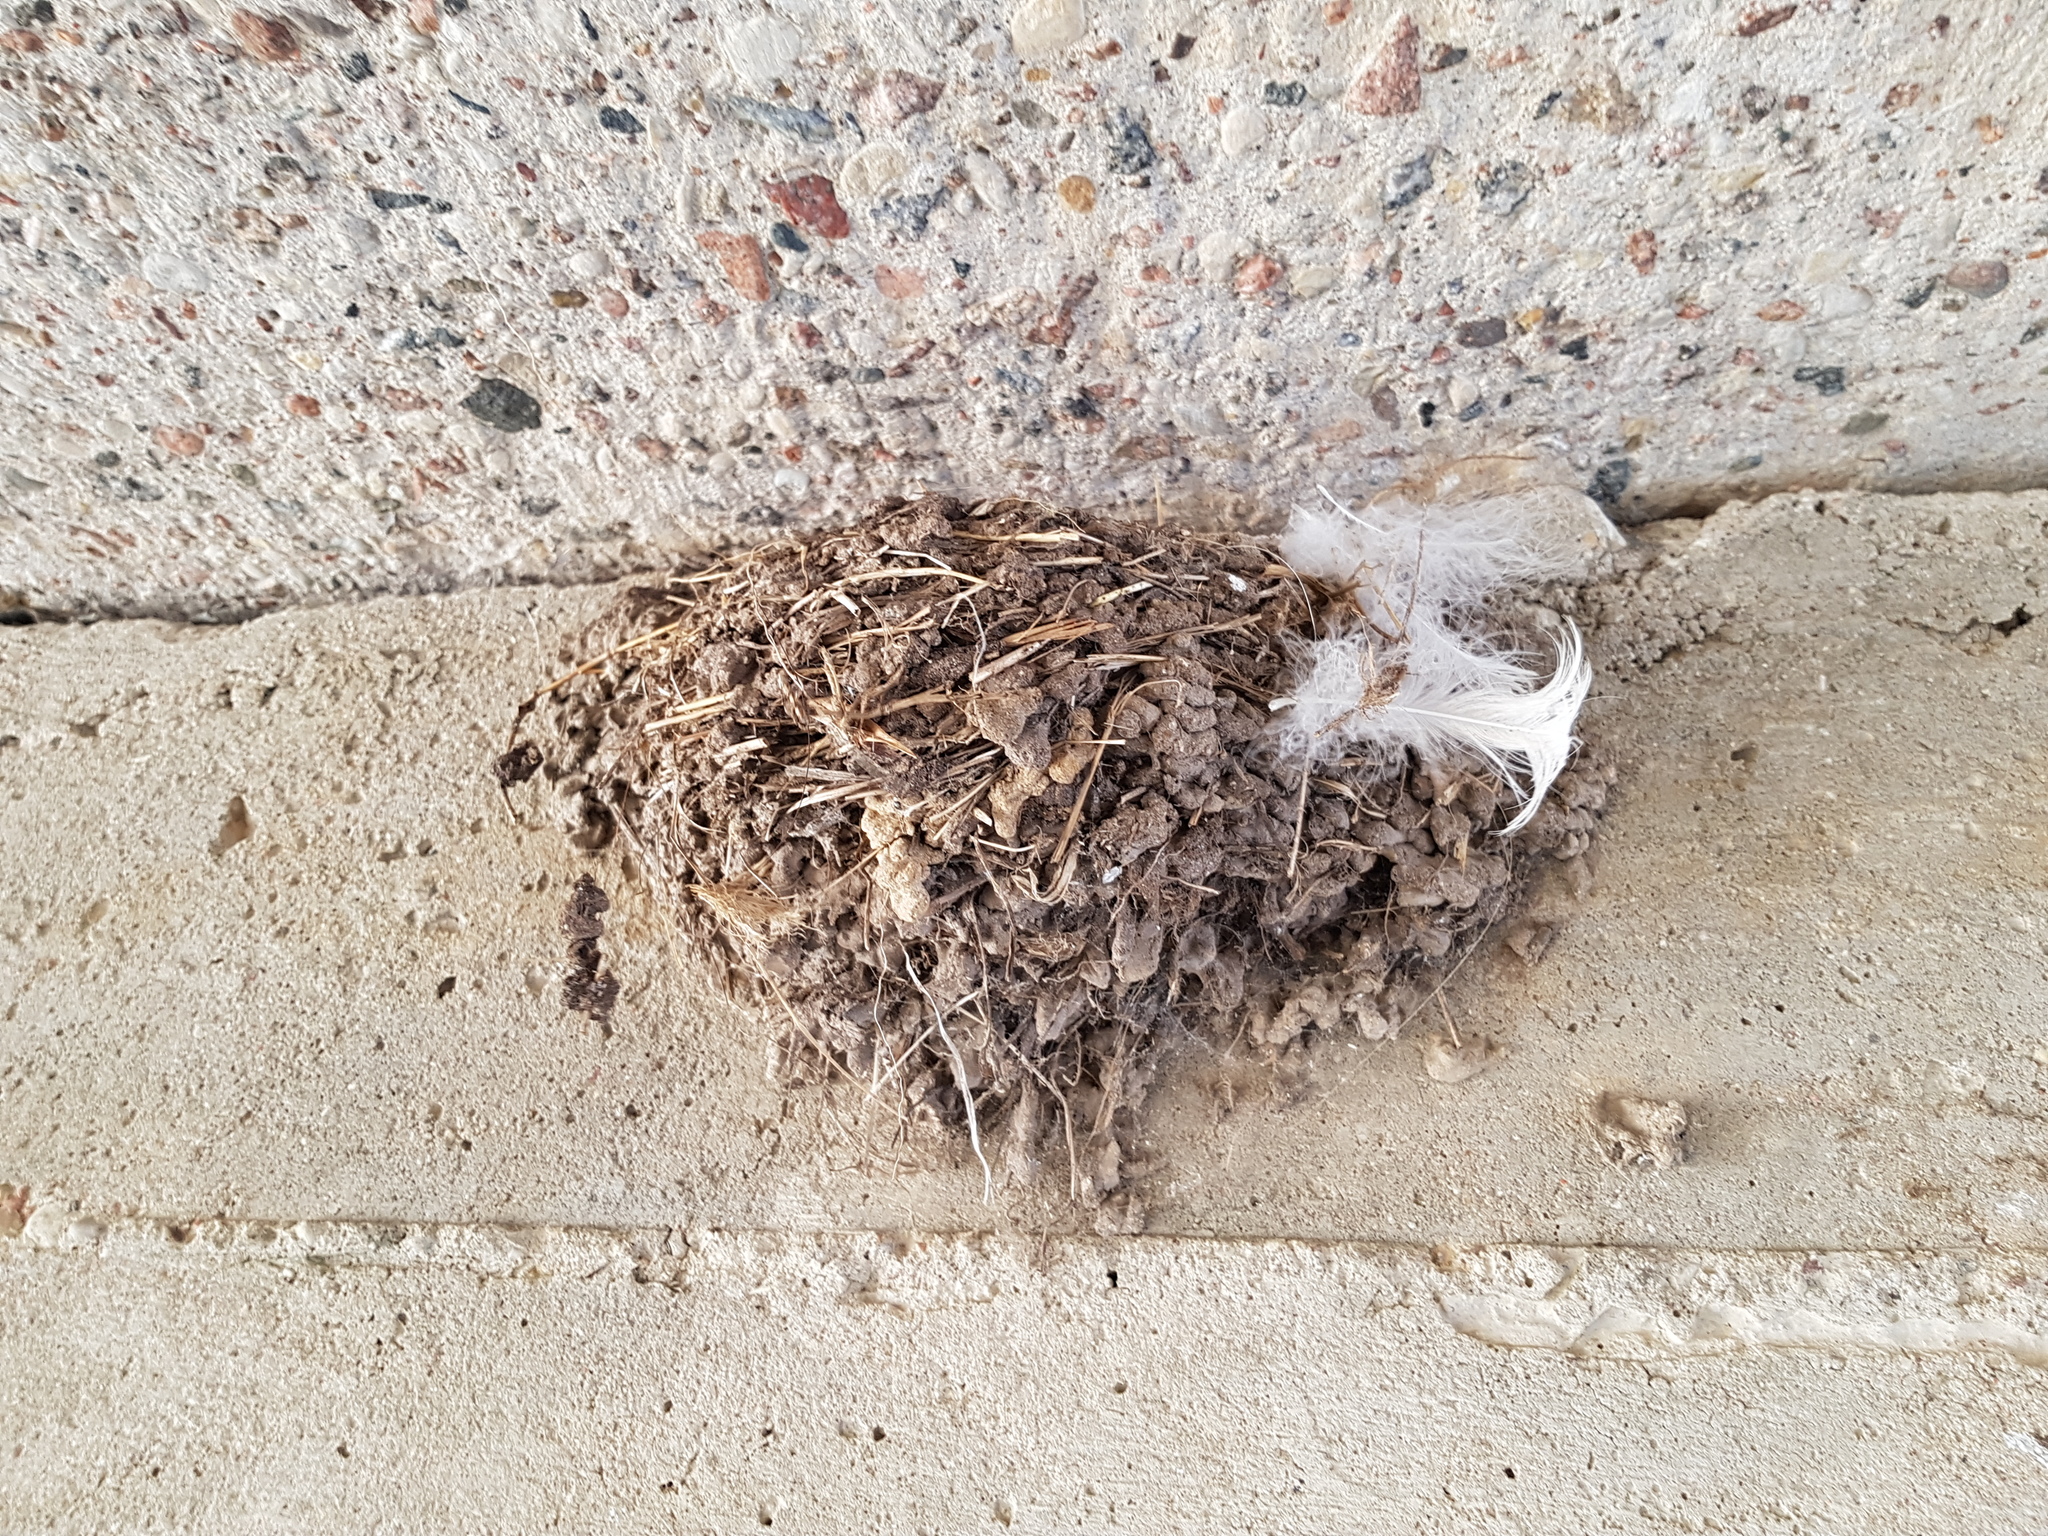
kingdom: Animalia
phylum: Chordata
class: Aves
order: Passeriformes
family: Hirundinidae
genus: Hirundo
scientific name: Hirundo rustica
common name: Barn swallow
